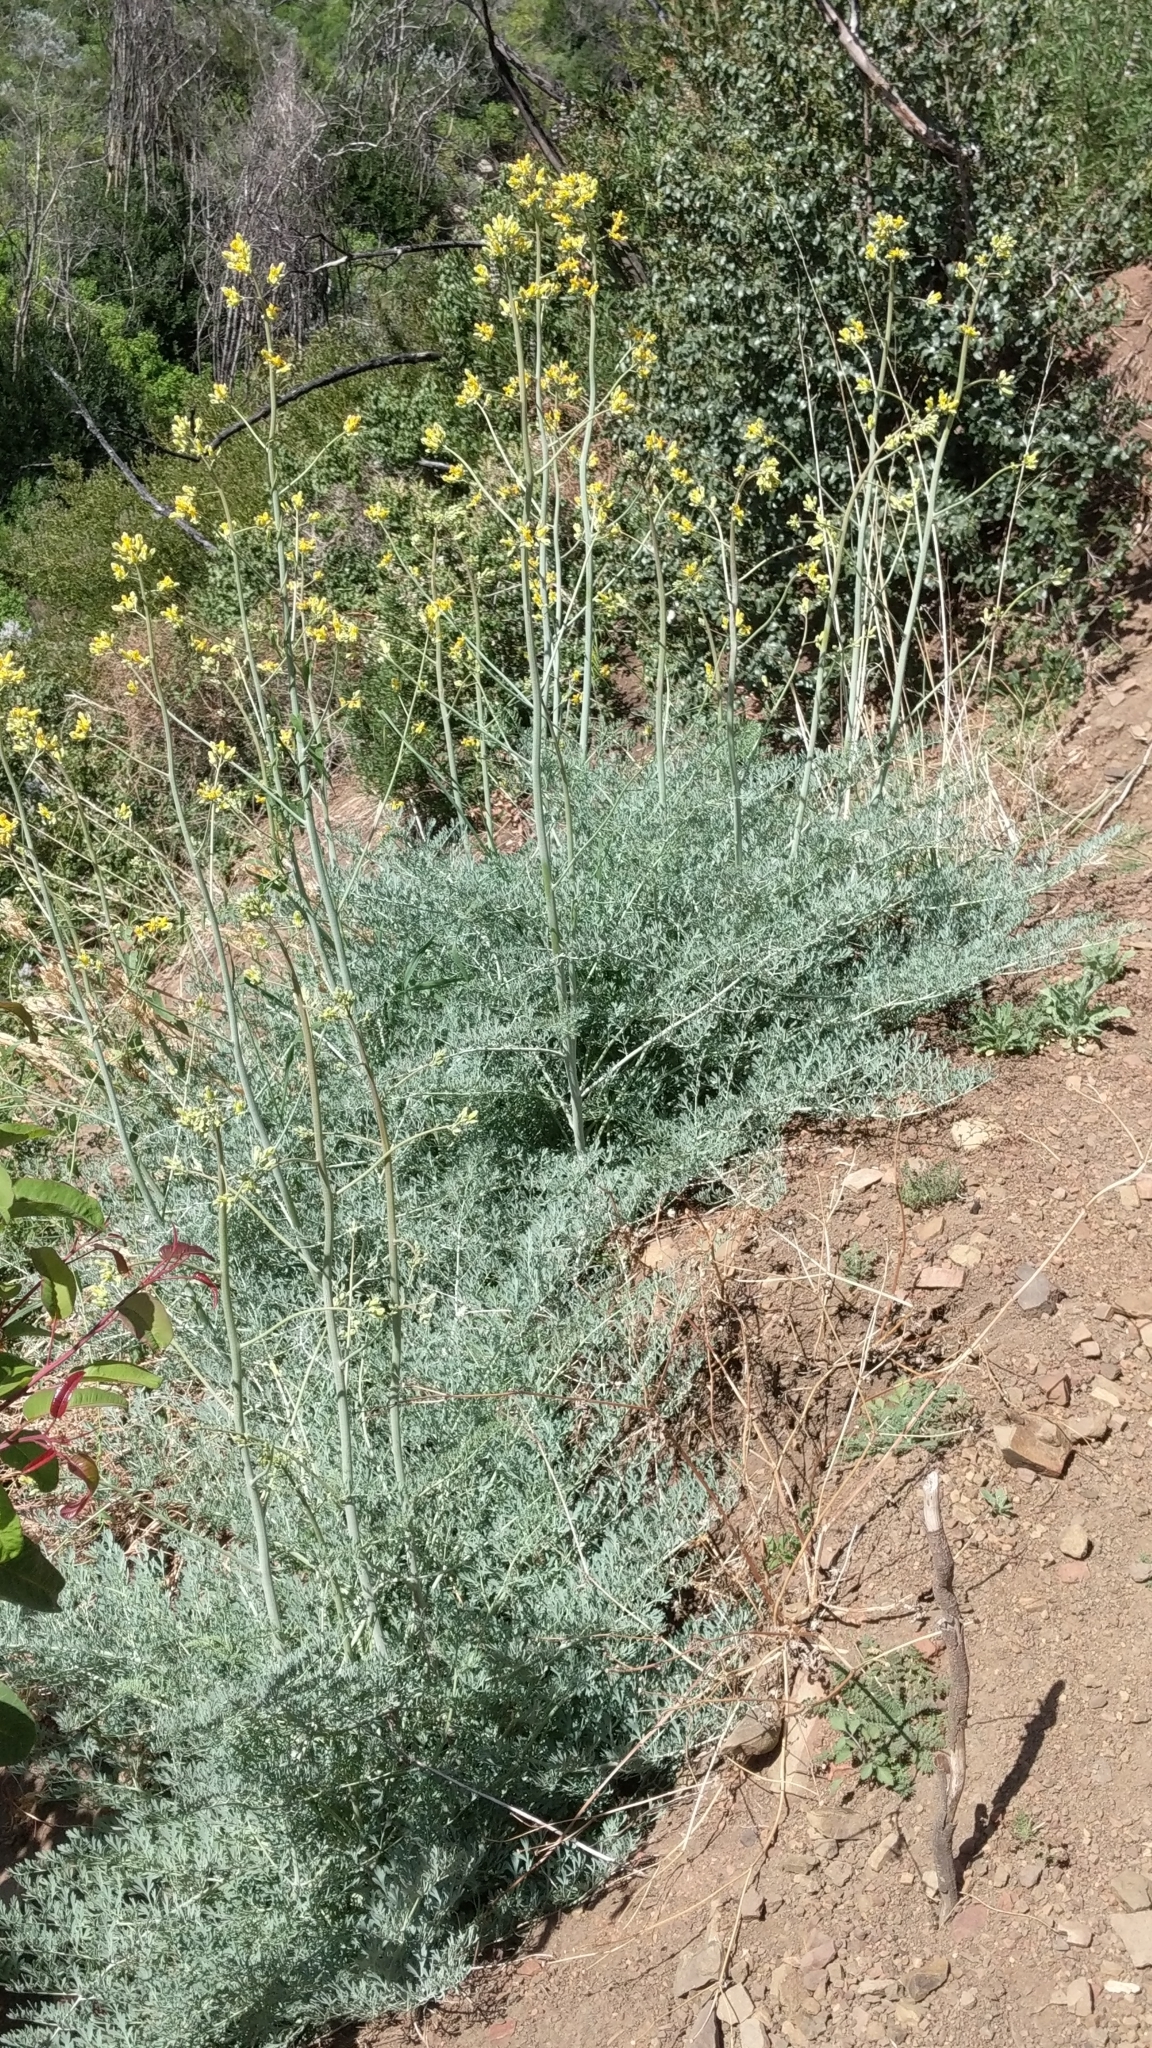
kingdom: Plantae
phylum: Tracheophyta
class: Magnoliopsida
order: Ranunculales
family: Papaveraceae
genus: Ehrendorferia
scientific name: Ehrendorferia chrysantha
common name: Golden eardrops
